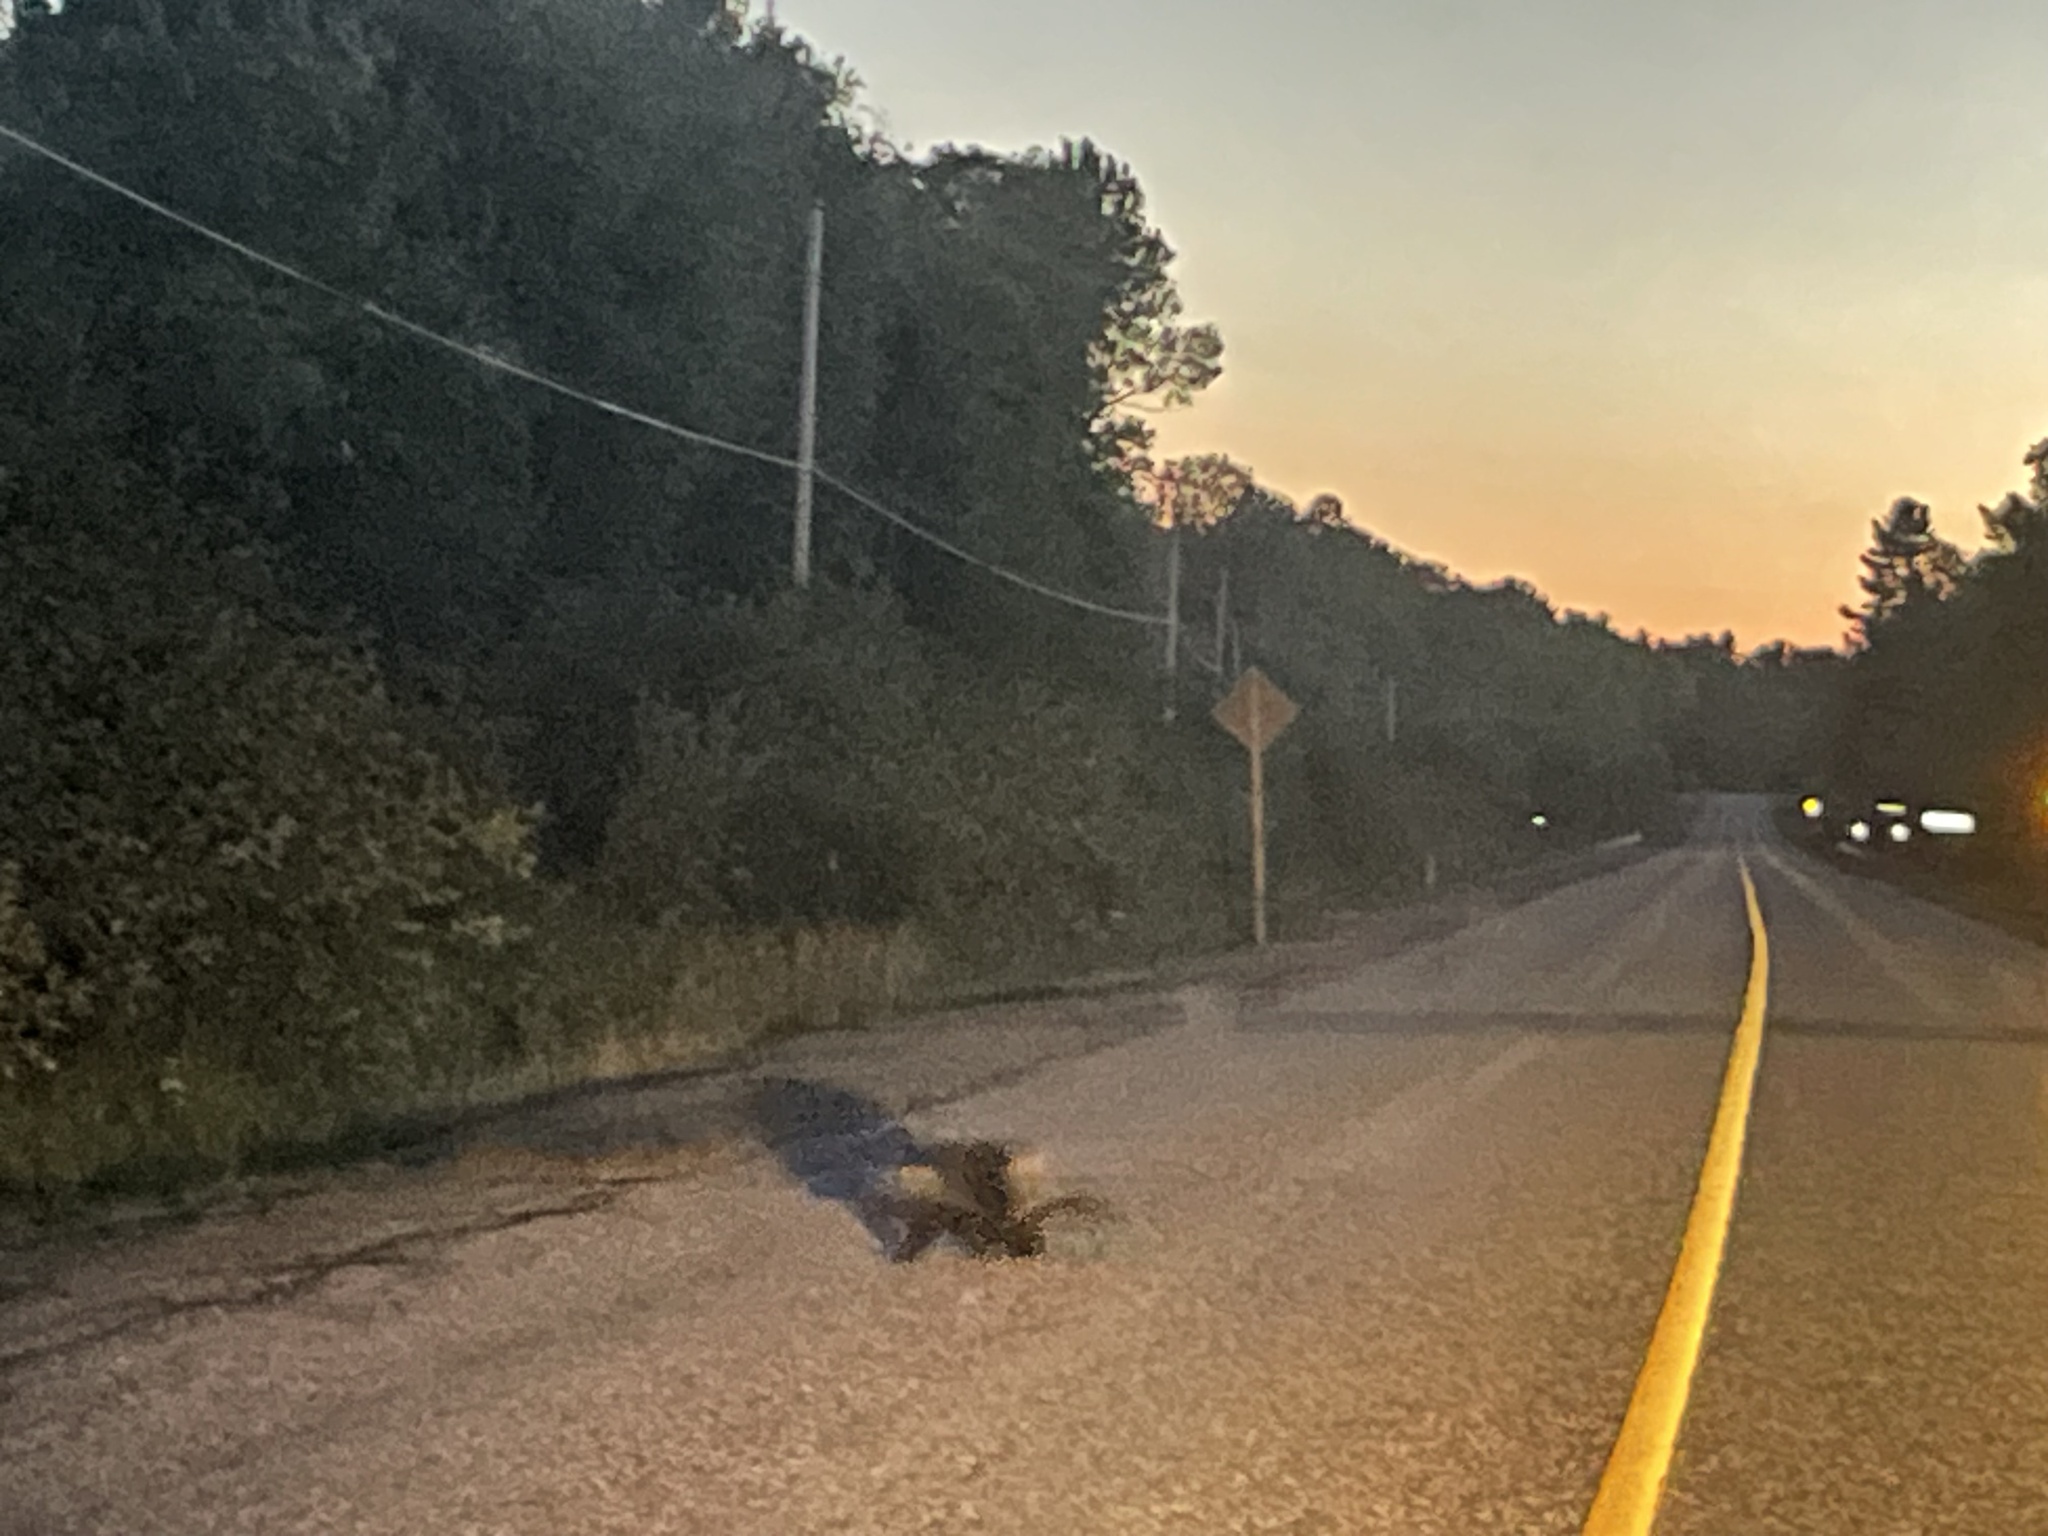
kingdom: Animalia
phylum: Chordata
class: Mammalia
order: Rodentia
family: Erethizontidae
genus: Erethizon
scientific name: Erethizon dorsatus
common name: North american porcupine
